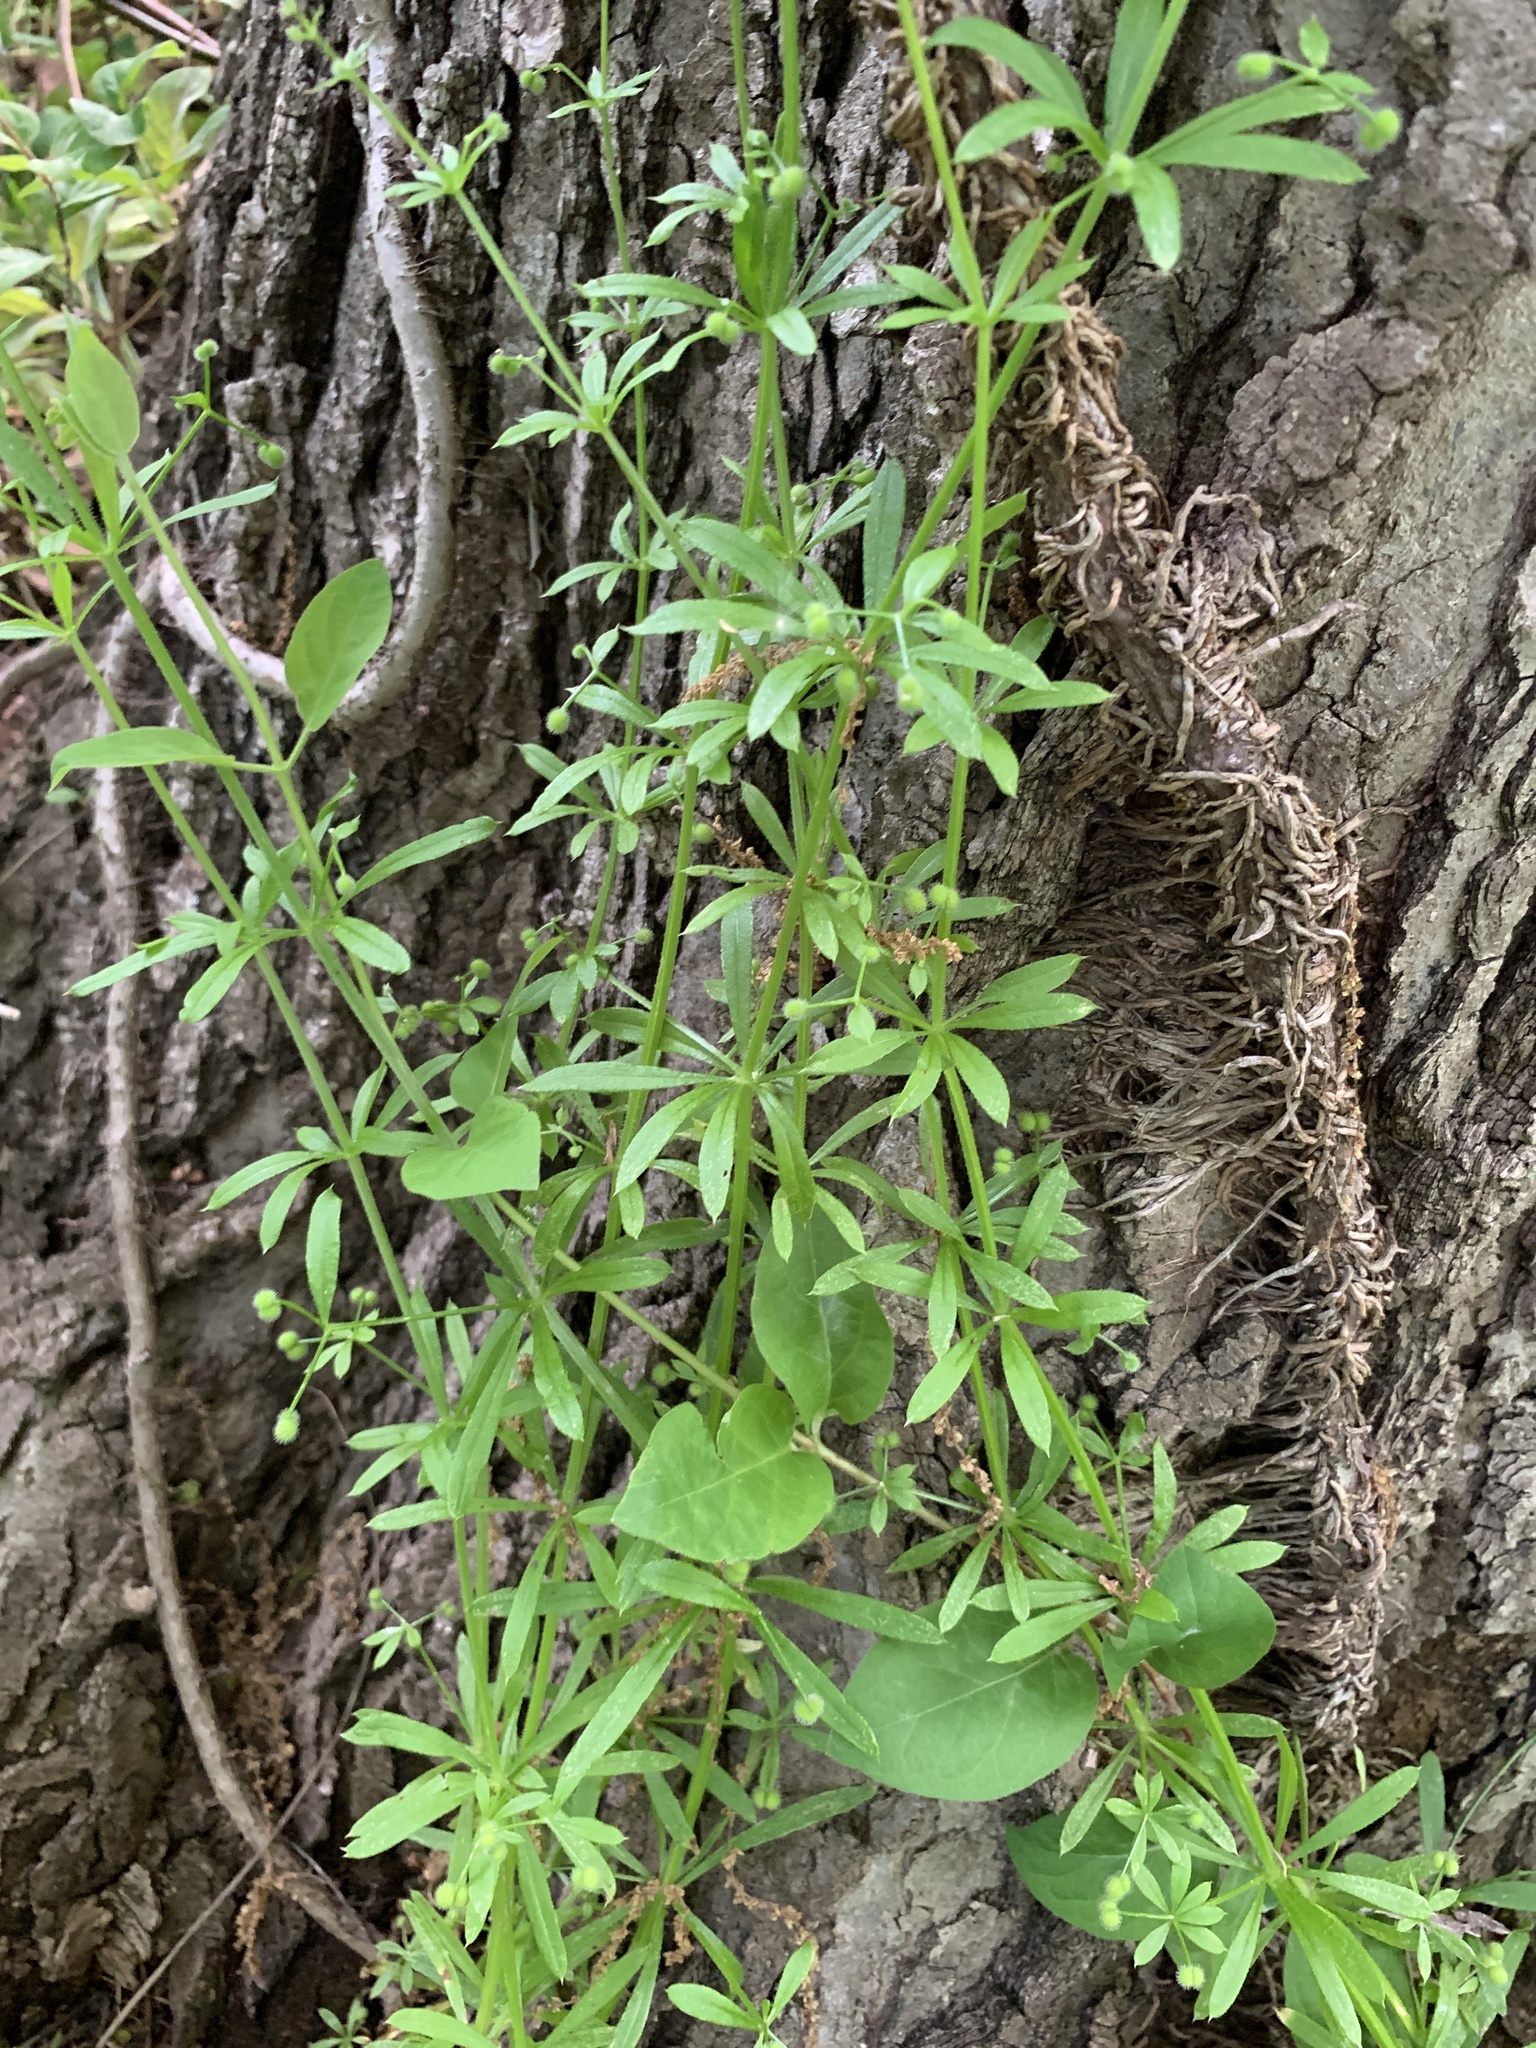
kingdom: Plantae
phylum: Tracheophyta
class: Magnoliopsida
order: Gentianales
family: Rubiaceae
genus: Galium
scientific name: Galium aparine
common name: Cleavers
